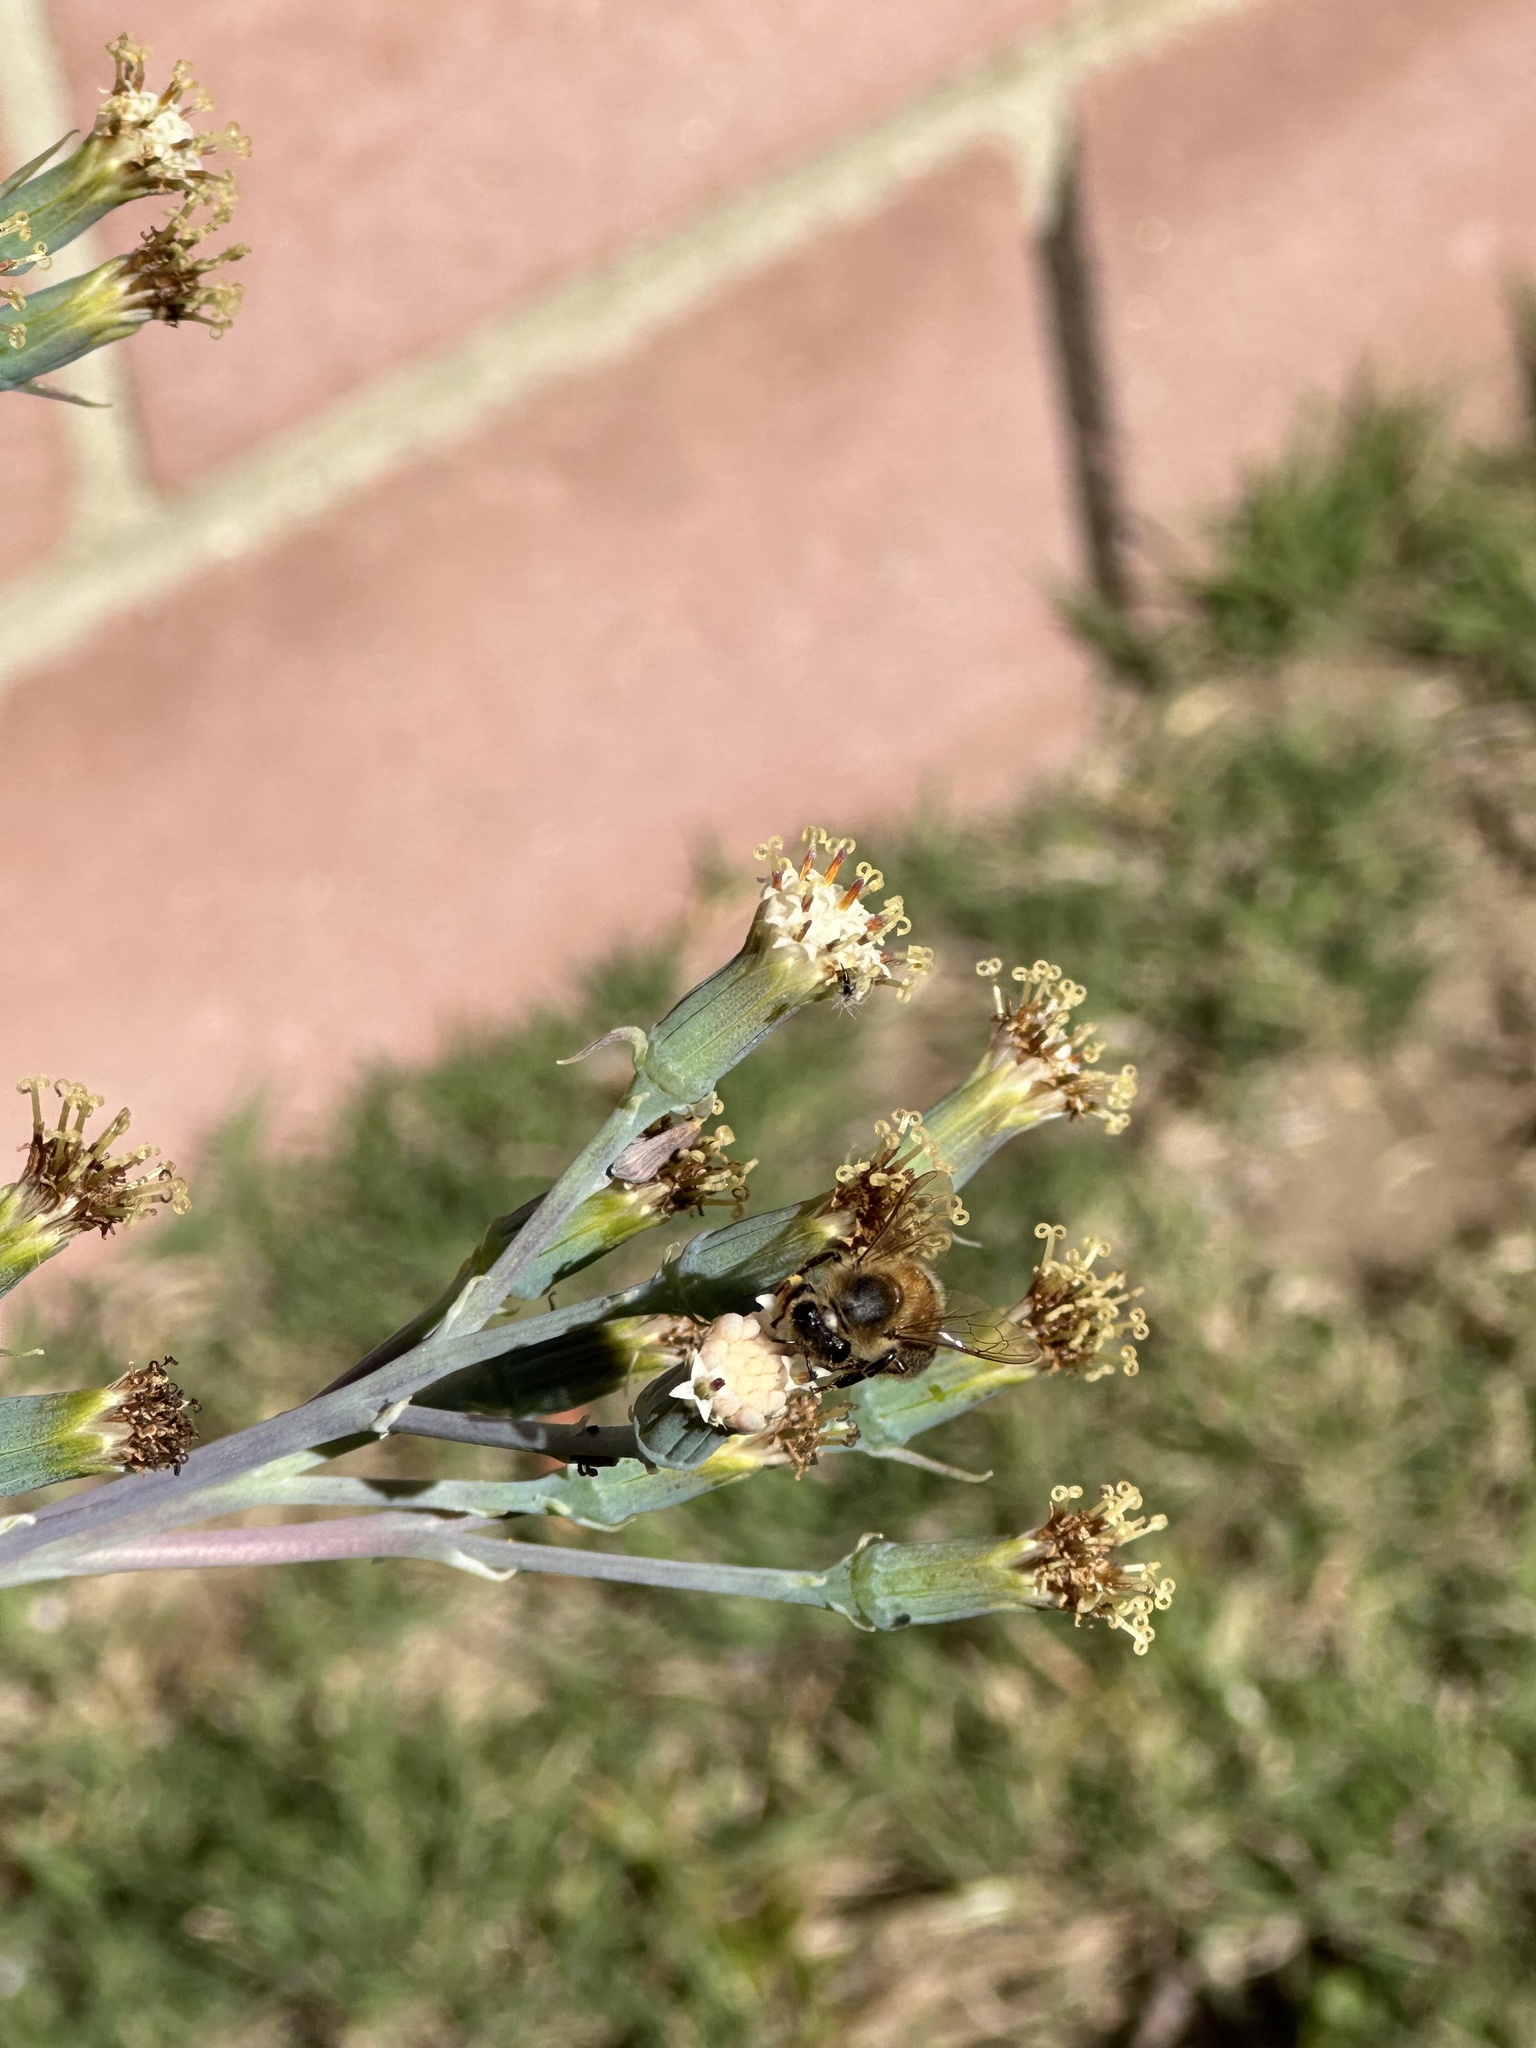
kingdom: Animalia
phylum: Arthropoda
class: Insecta
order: Hymenoptera
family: Apidae
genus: Apis
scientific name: Apis mellifera
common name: Honey bee
